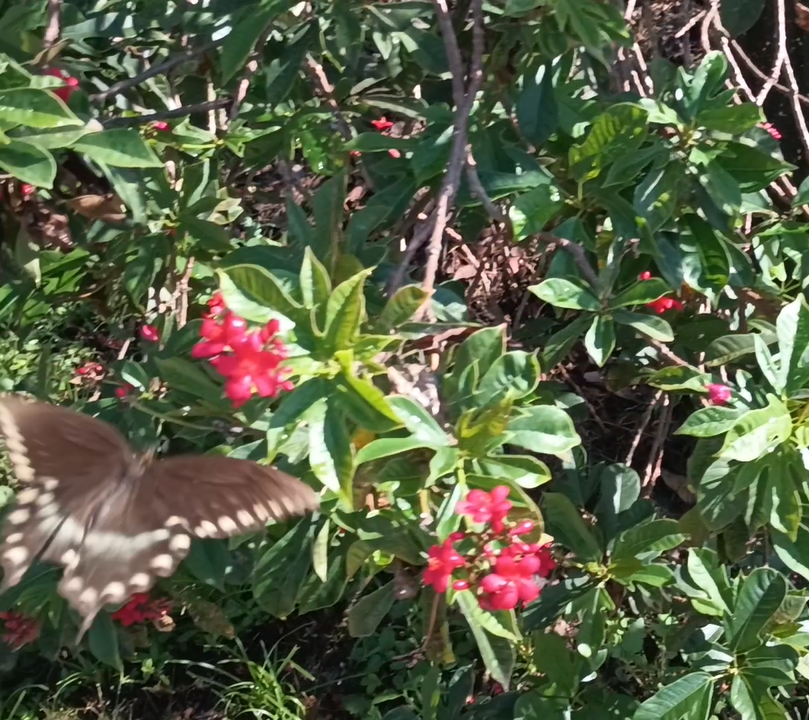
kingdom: Animalia
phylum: Arthropoda
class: Insecta
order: Lepidoptera
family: Papilionidae
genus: Papilio
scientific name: Papilio troilus
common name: Spicebush swallowtail
